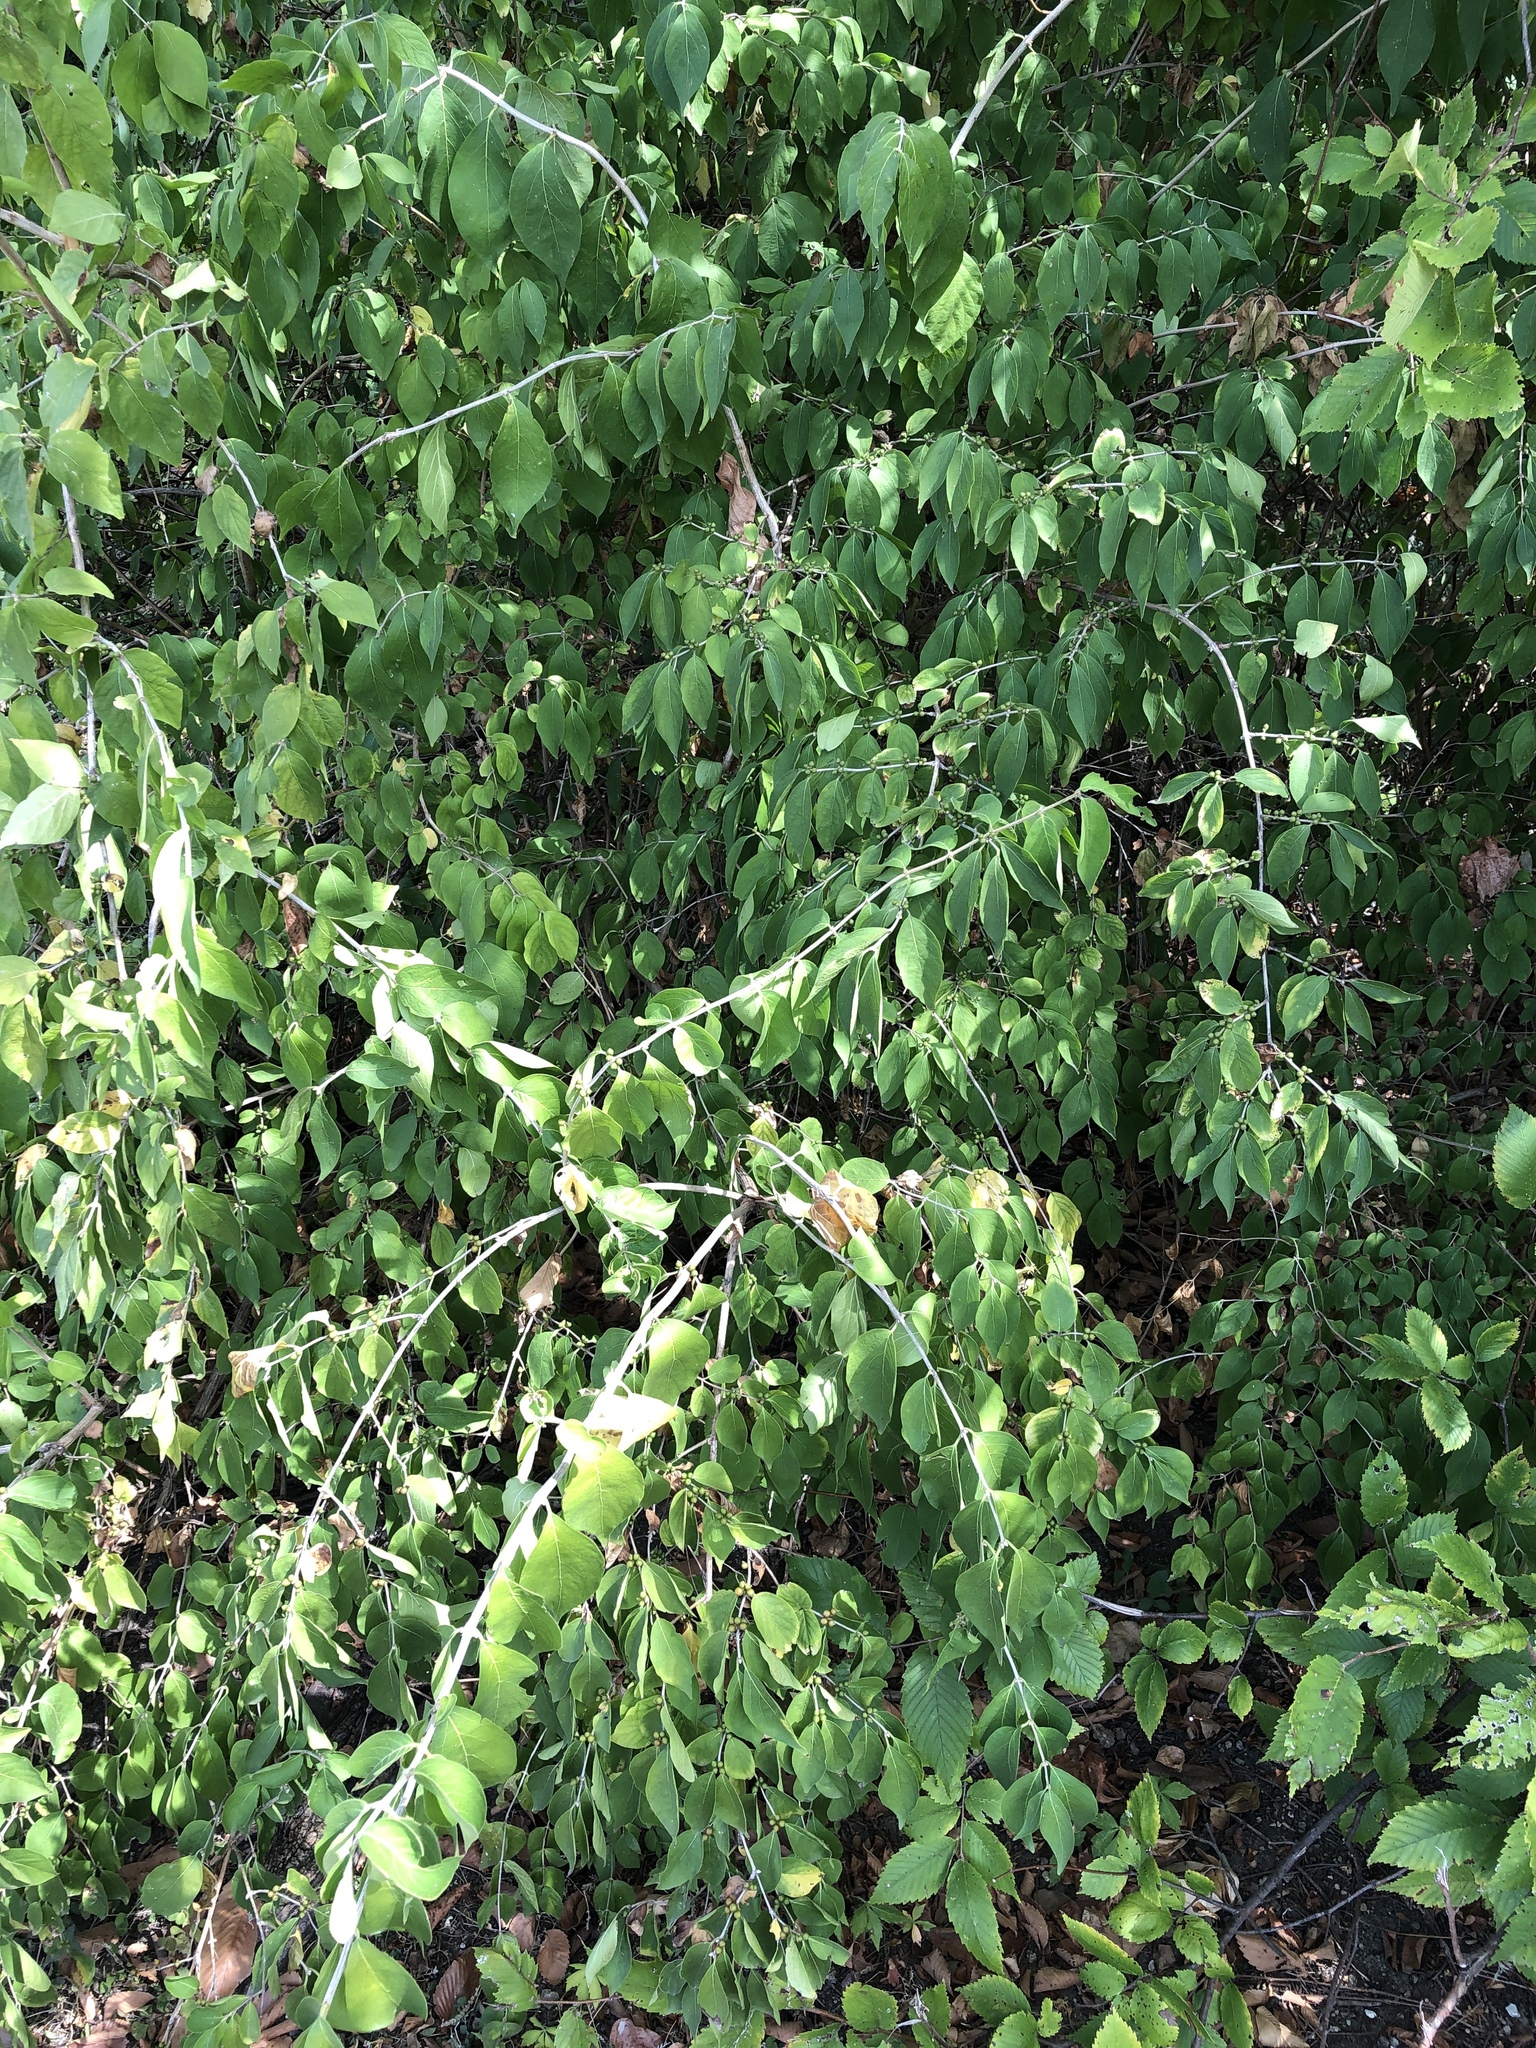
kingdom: Plantae
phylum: Tracheophyta
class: Magnoliopsida
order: Dipsacales
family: Caprifoliaceae
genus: Lonicera
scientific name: Lonicera maackii
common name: Amur honeysuckle
